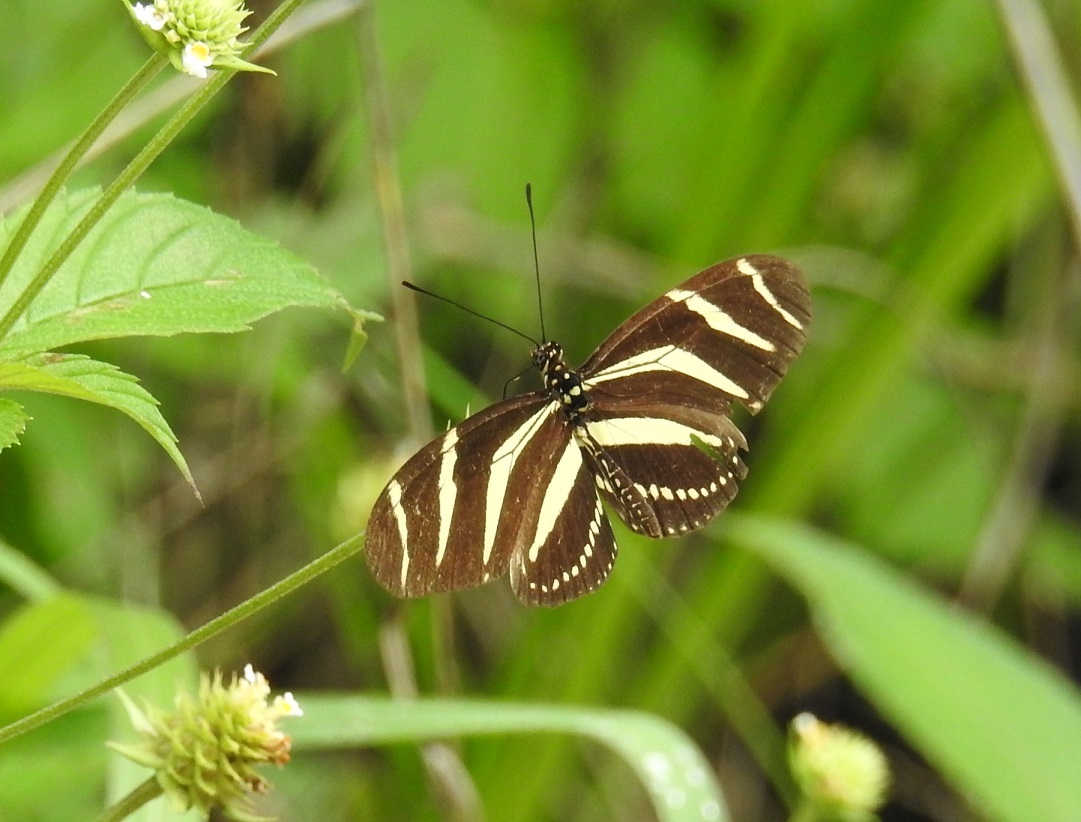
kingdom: Animalia
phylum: Arthropoda
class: Insecta
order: Lepidoptera
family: Nymphalidae
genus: Heliconius
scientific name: Heliconius charithonia
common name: Zebra long wing
